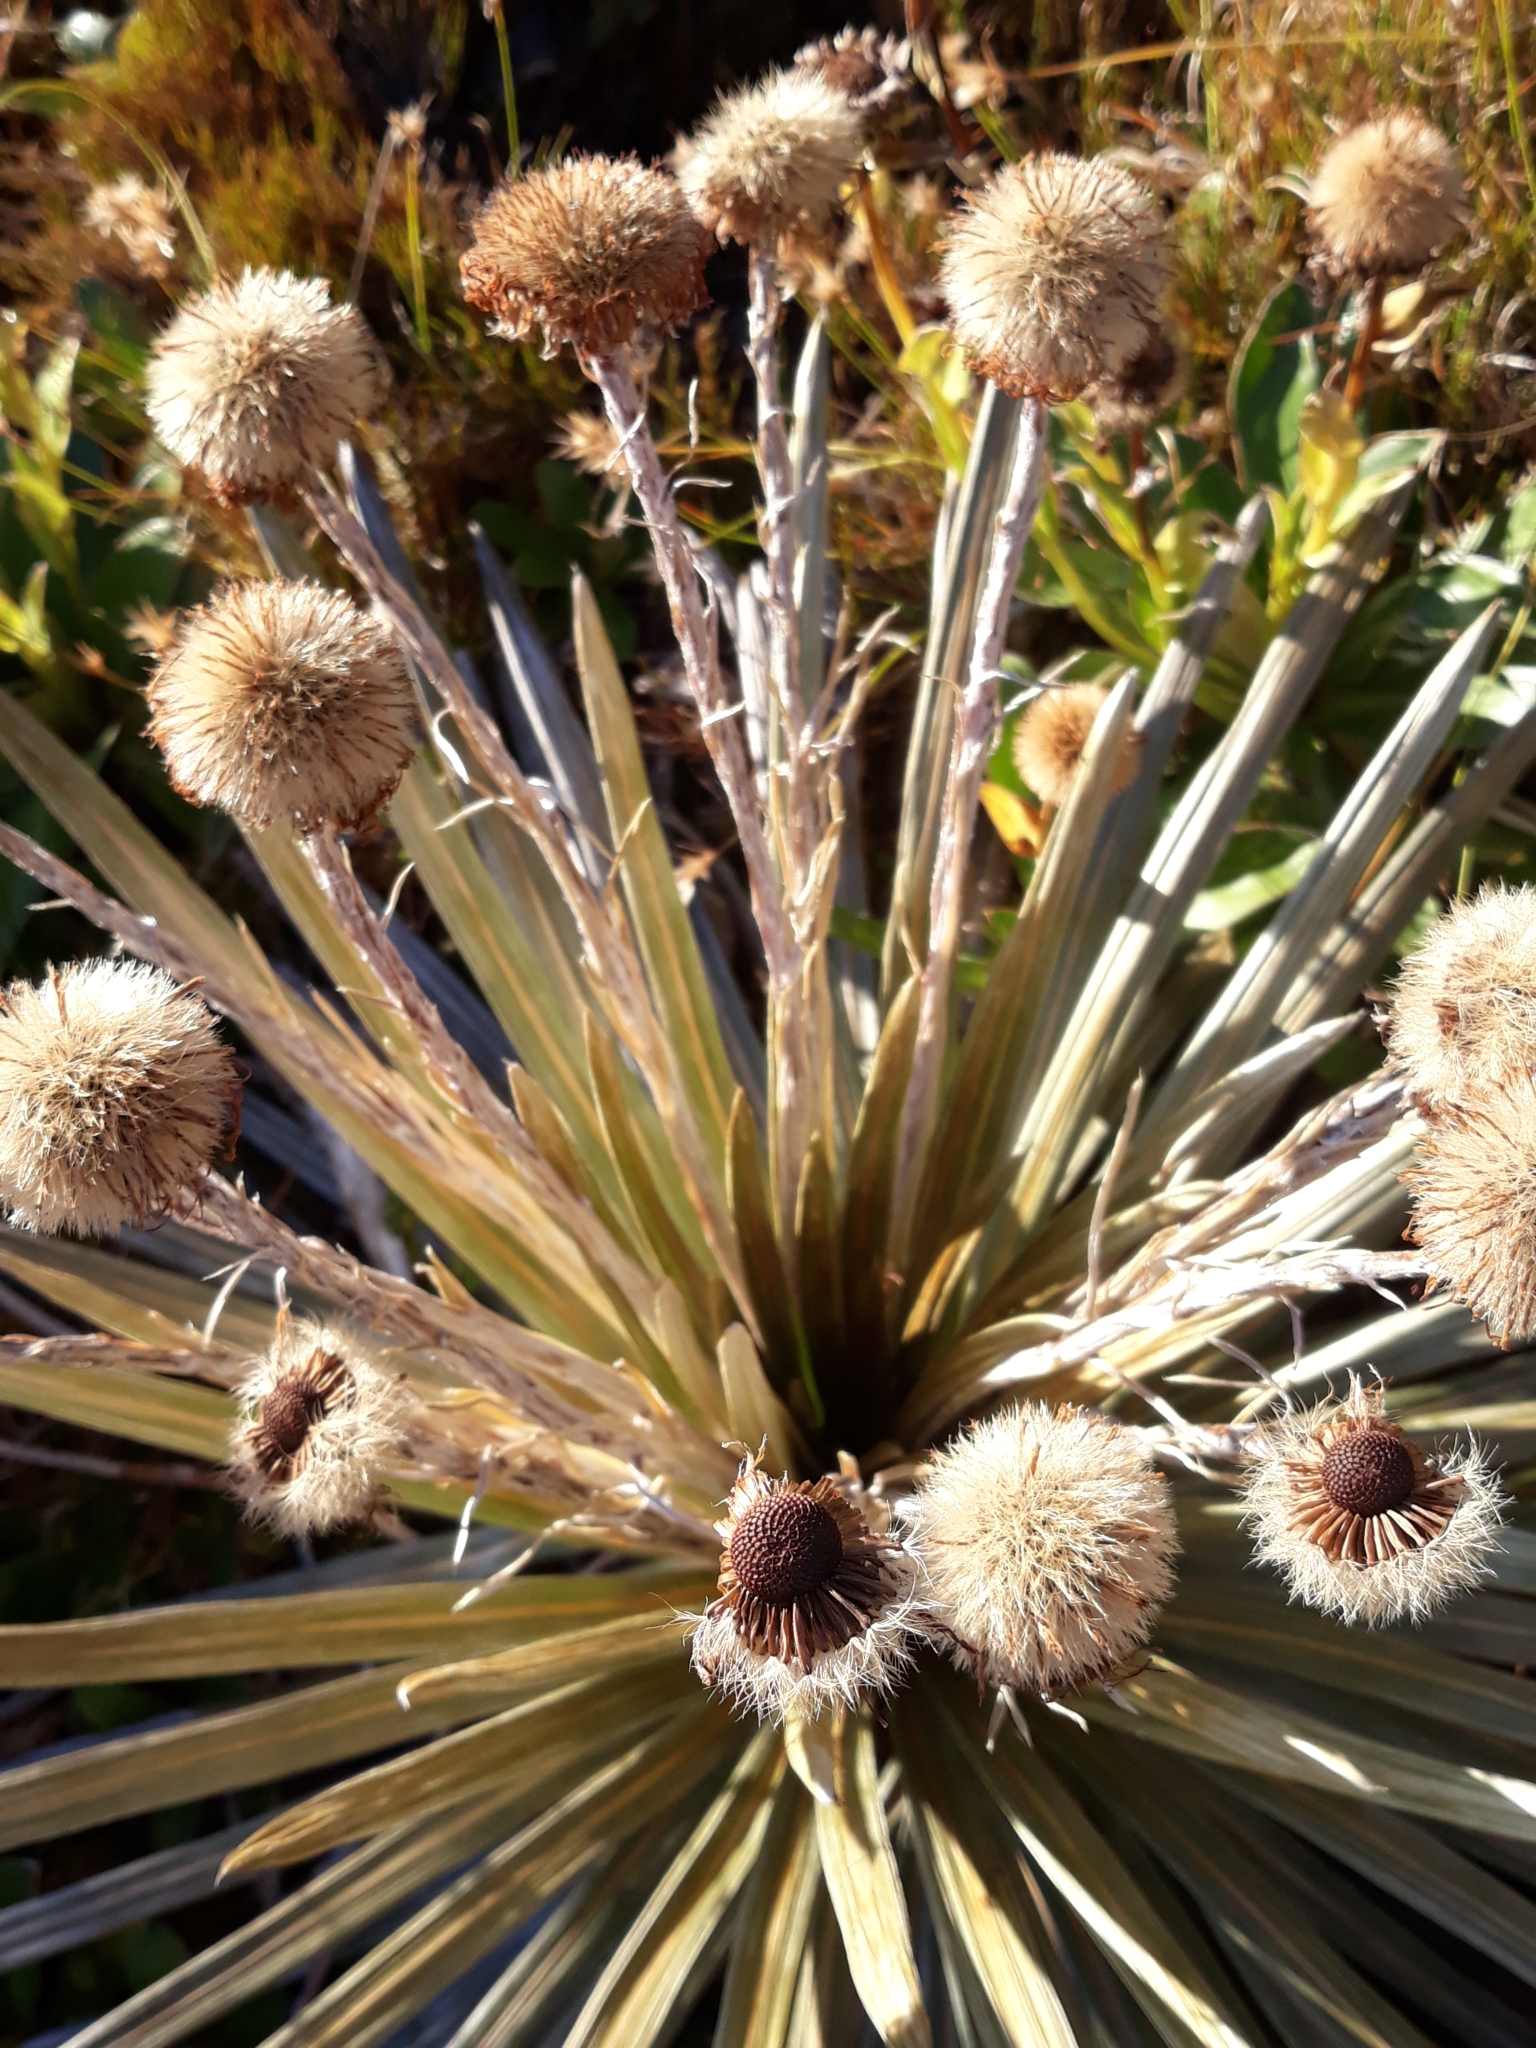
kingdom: Plantae
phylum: Tracheophyta
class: Magnoliopsida
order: Asterales
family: Asteraceae
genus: Celmisia
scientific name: Celmisia armstrongii
